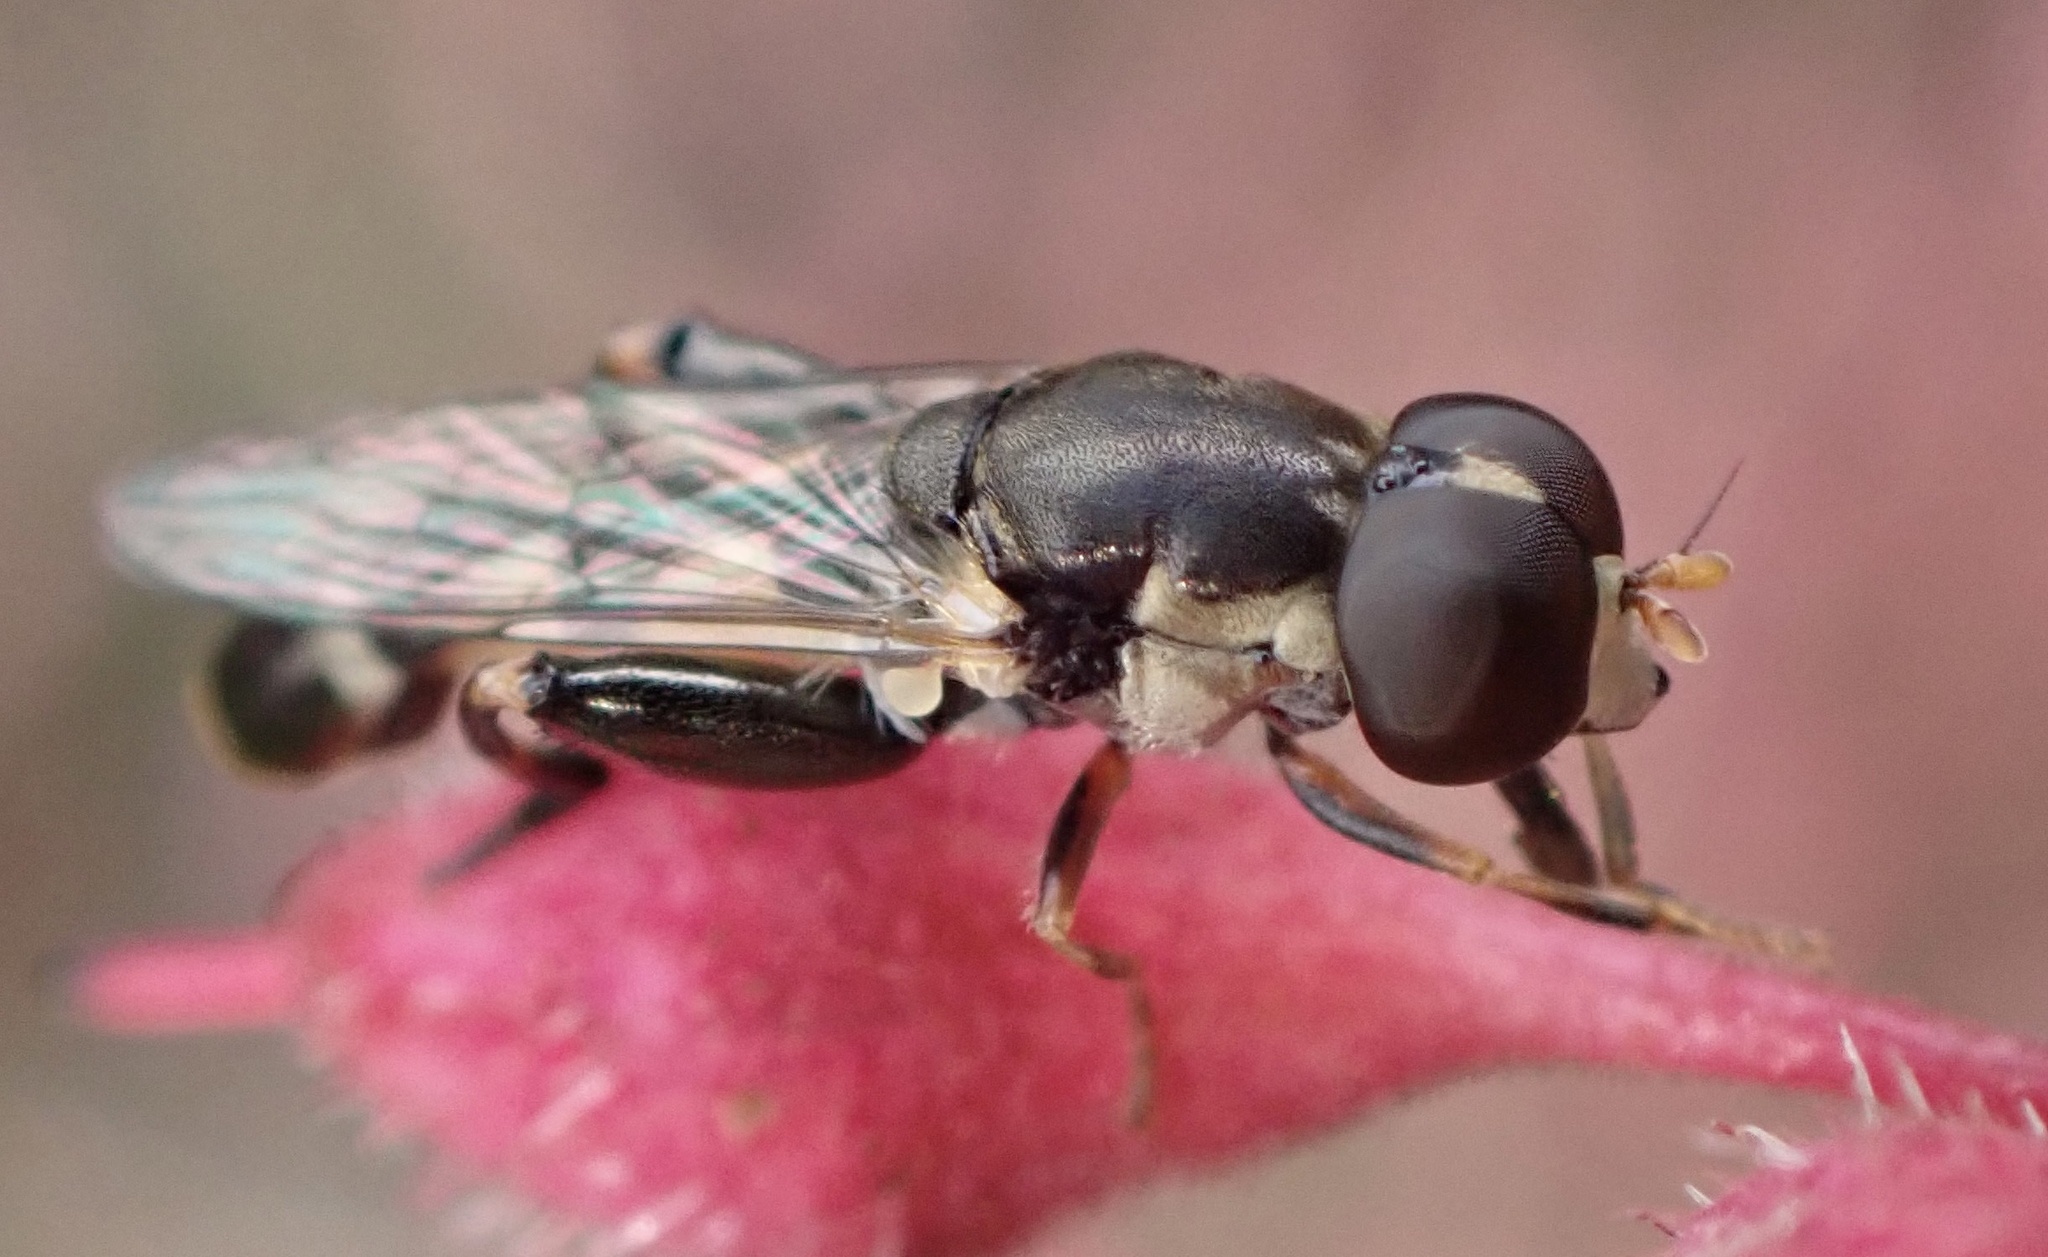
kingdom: Animalia
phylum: Arthropoda
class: Insecta
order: Diptera
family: Syrphidae
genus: Syritta
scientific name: Syritta pipiens
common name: Hover fly
